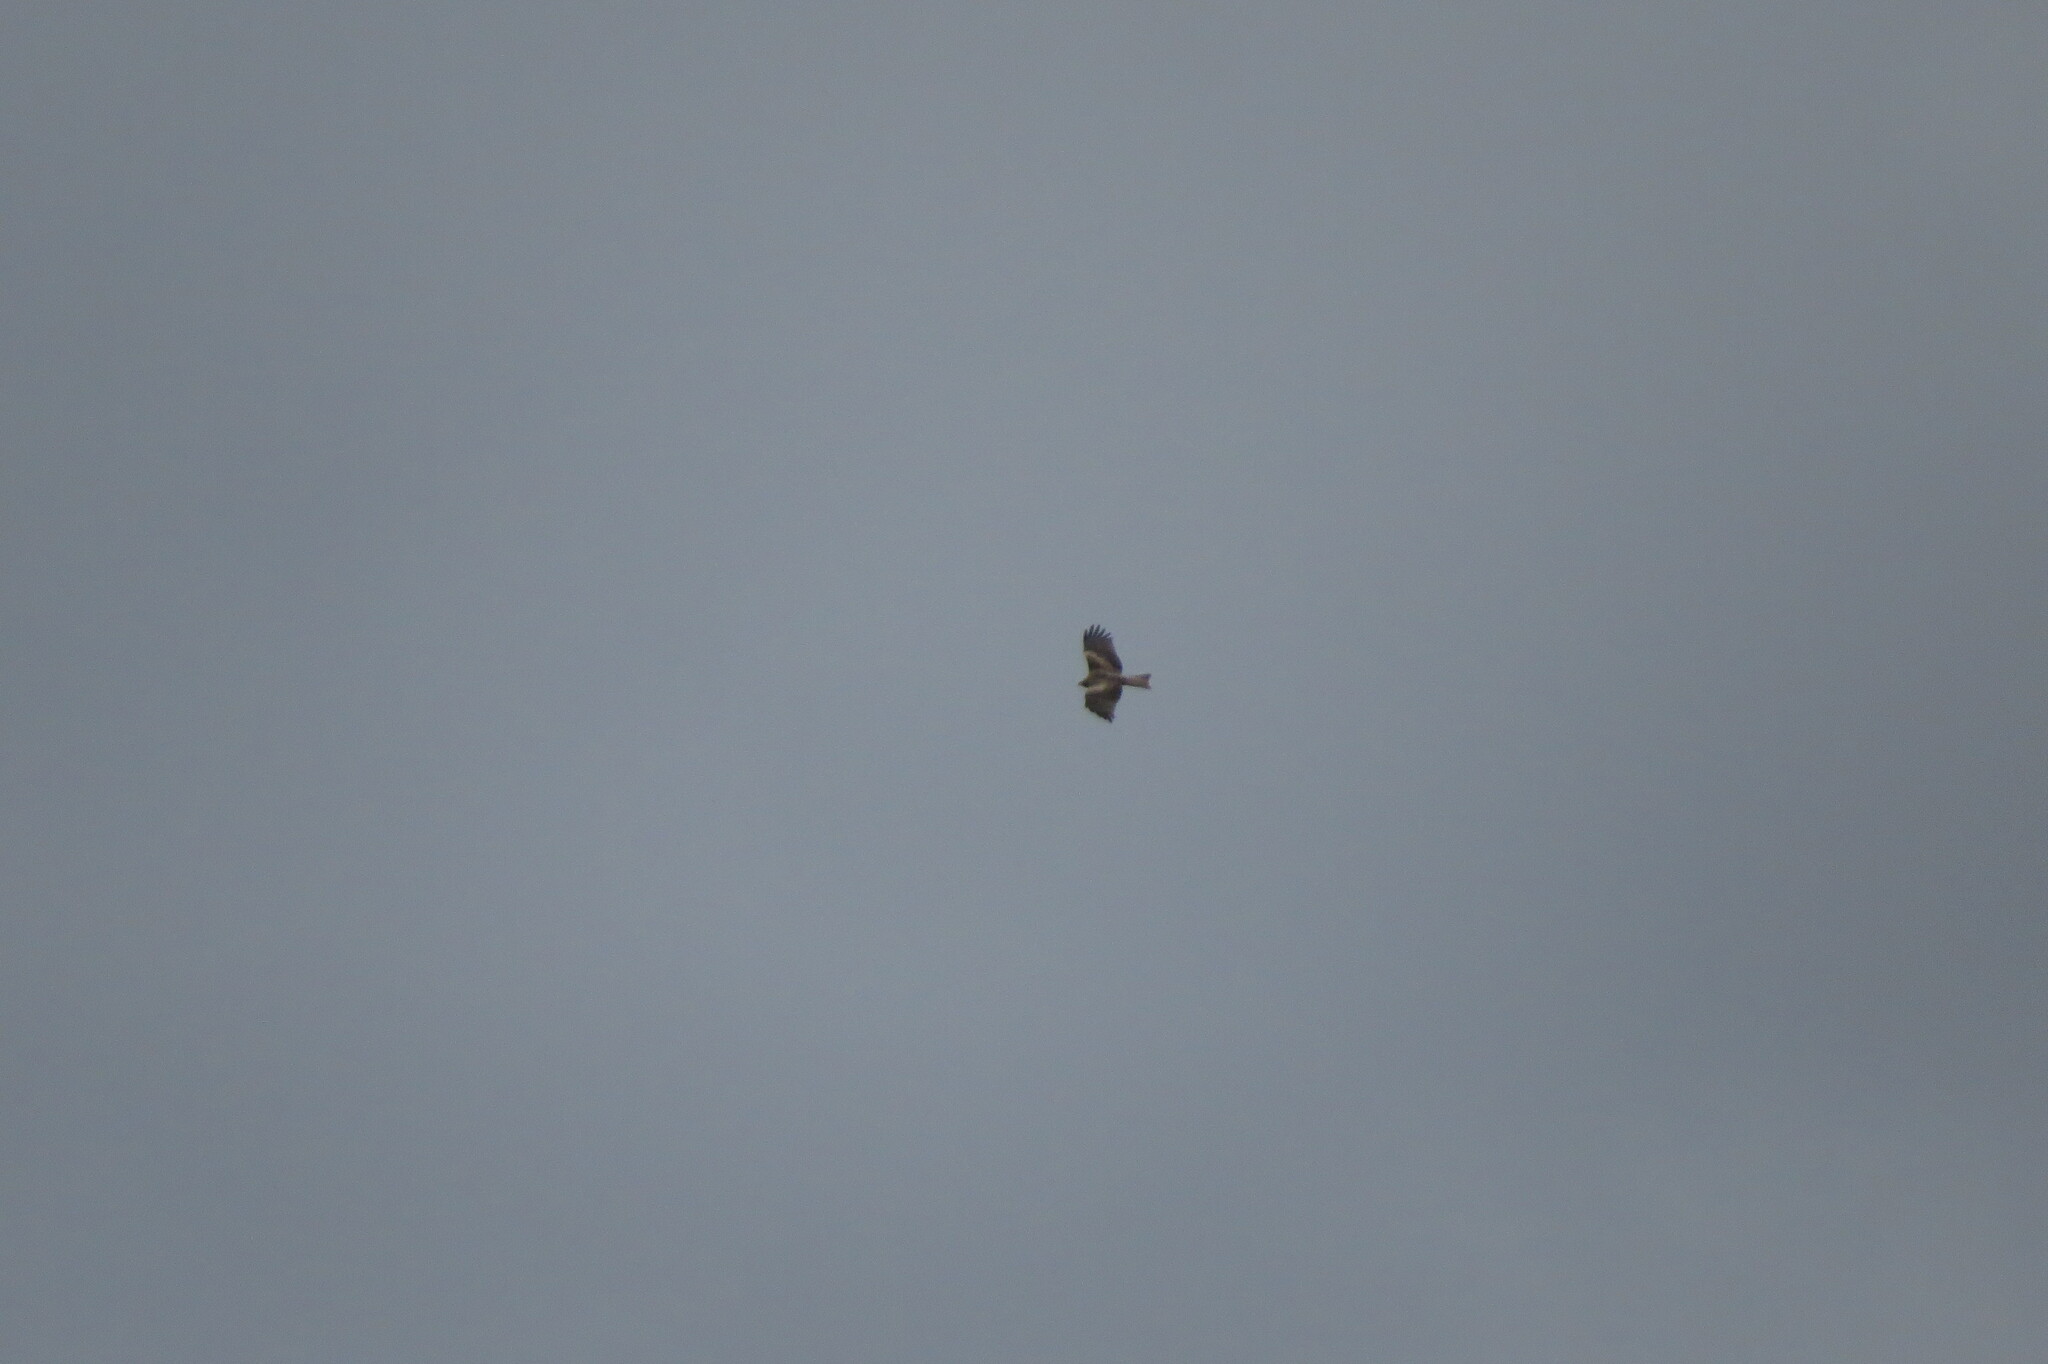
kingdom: Animalia
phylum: Chordata
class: Aves
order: Accipitriformes
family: Accipitridae
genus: Milvus
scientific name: Milvus migrans
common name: Black kite
